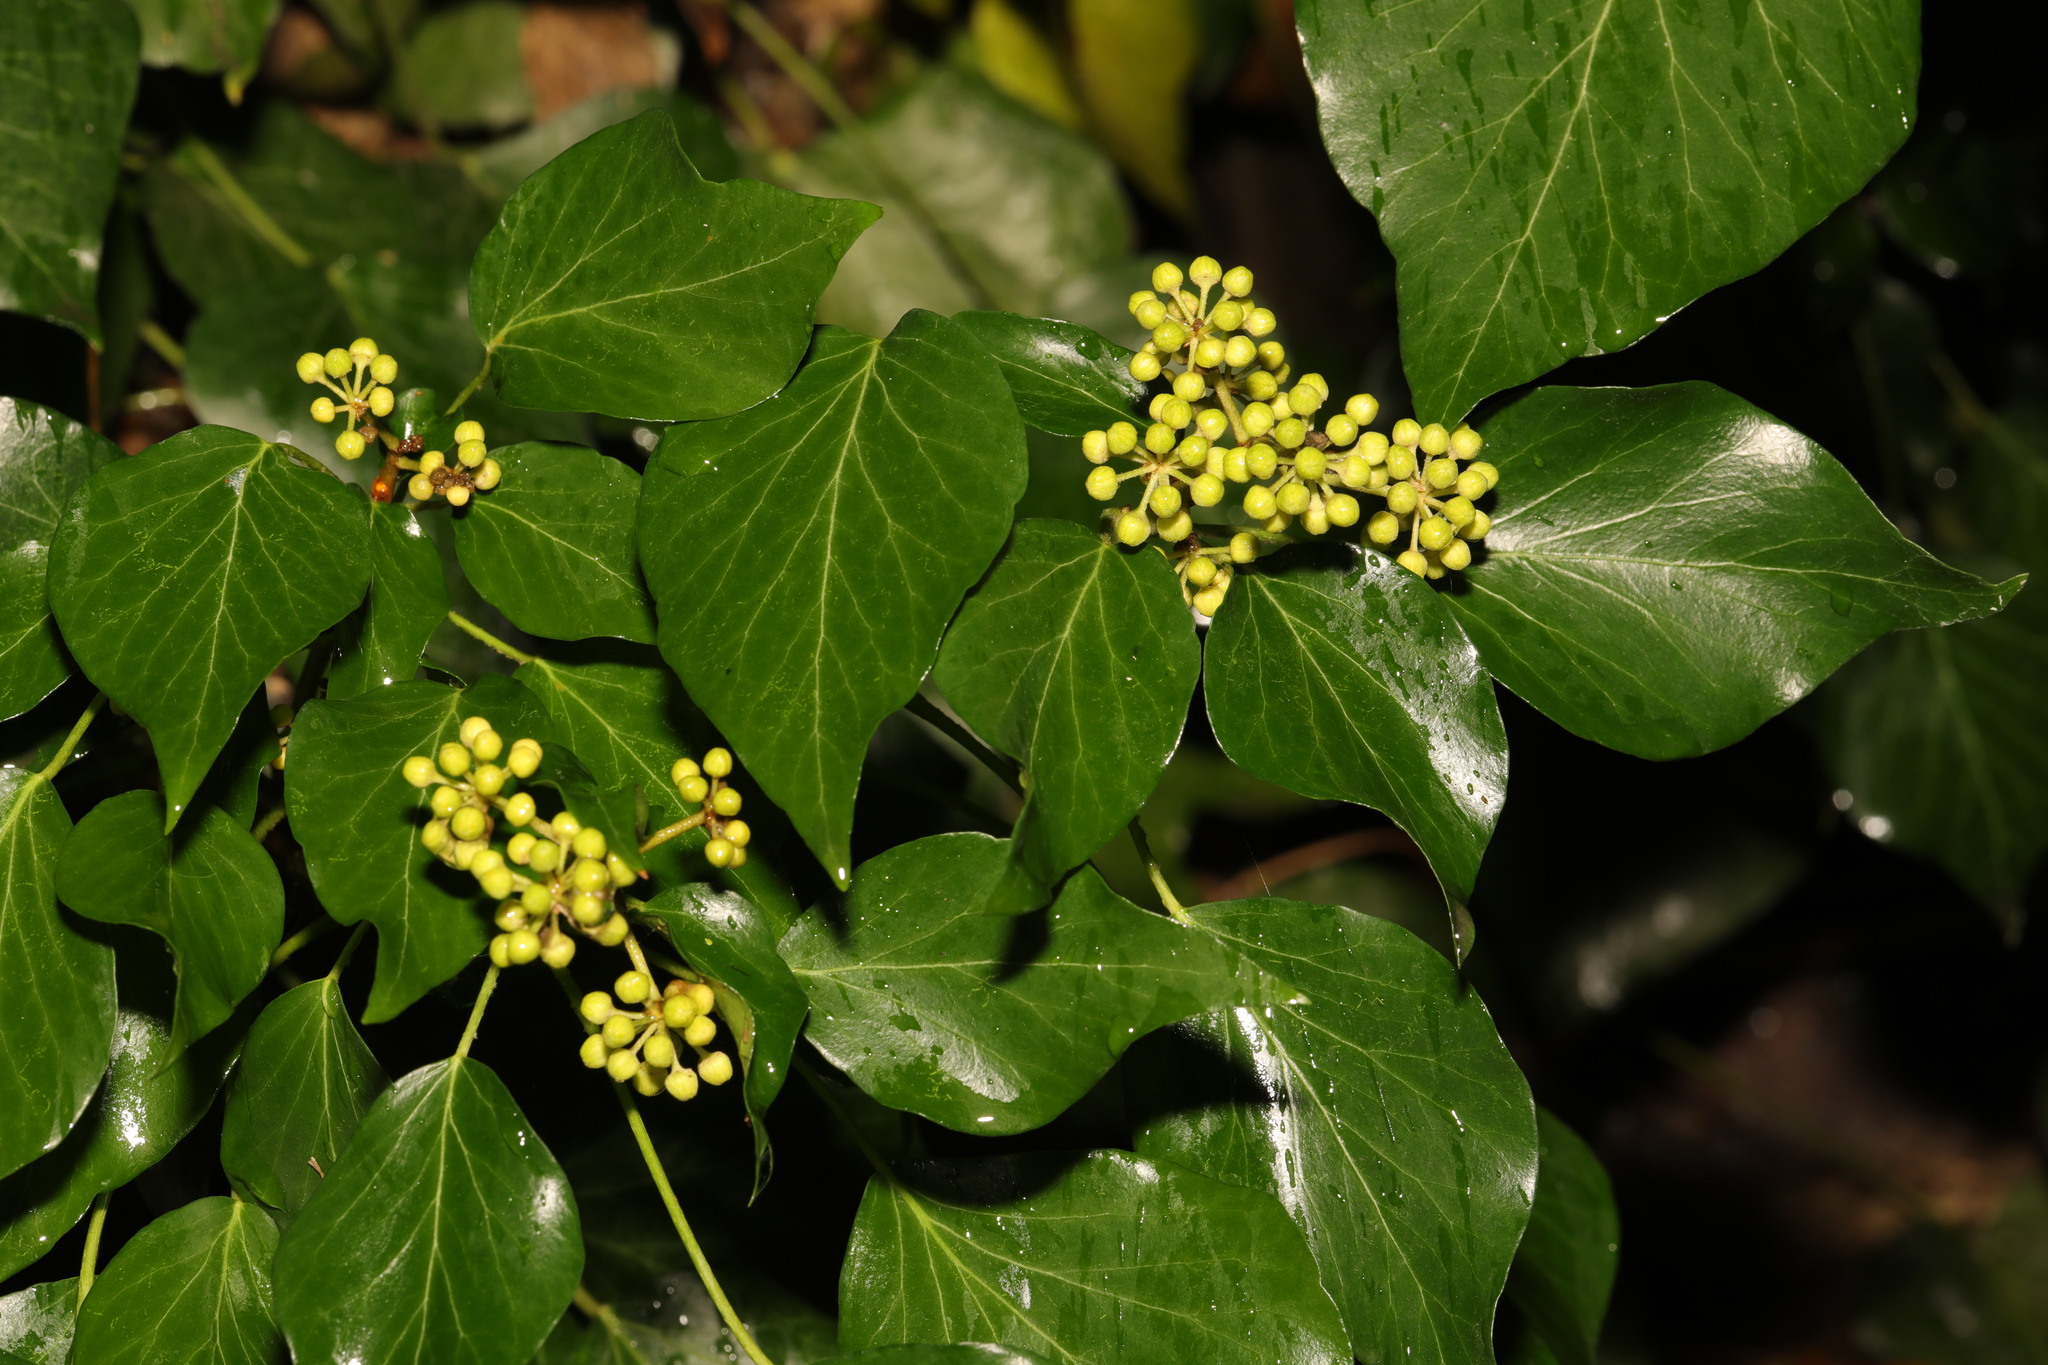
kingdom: Plantae
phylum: Tracheophyta
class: Magnoliopsida
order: Apiales
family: Araliaceae
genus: Hedera
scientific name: Hedera helix
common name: Ivy
